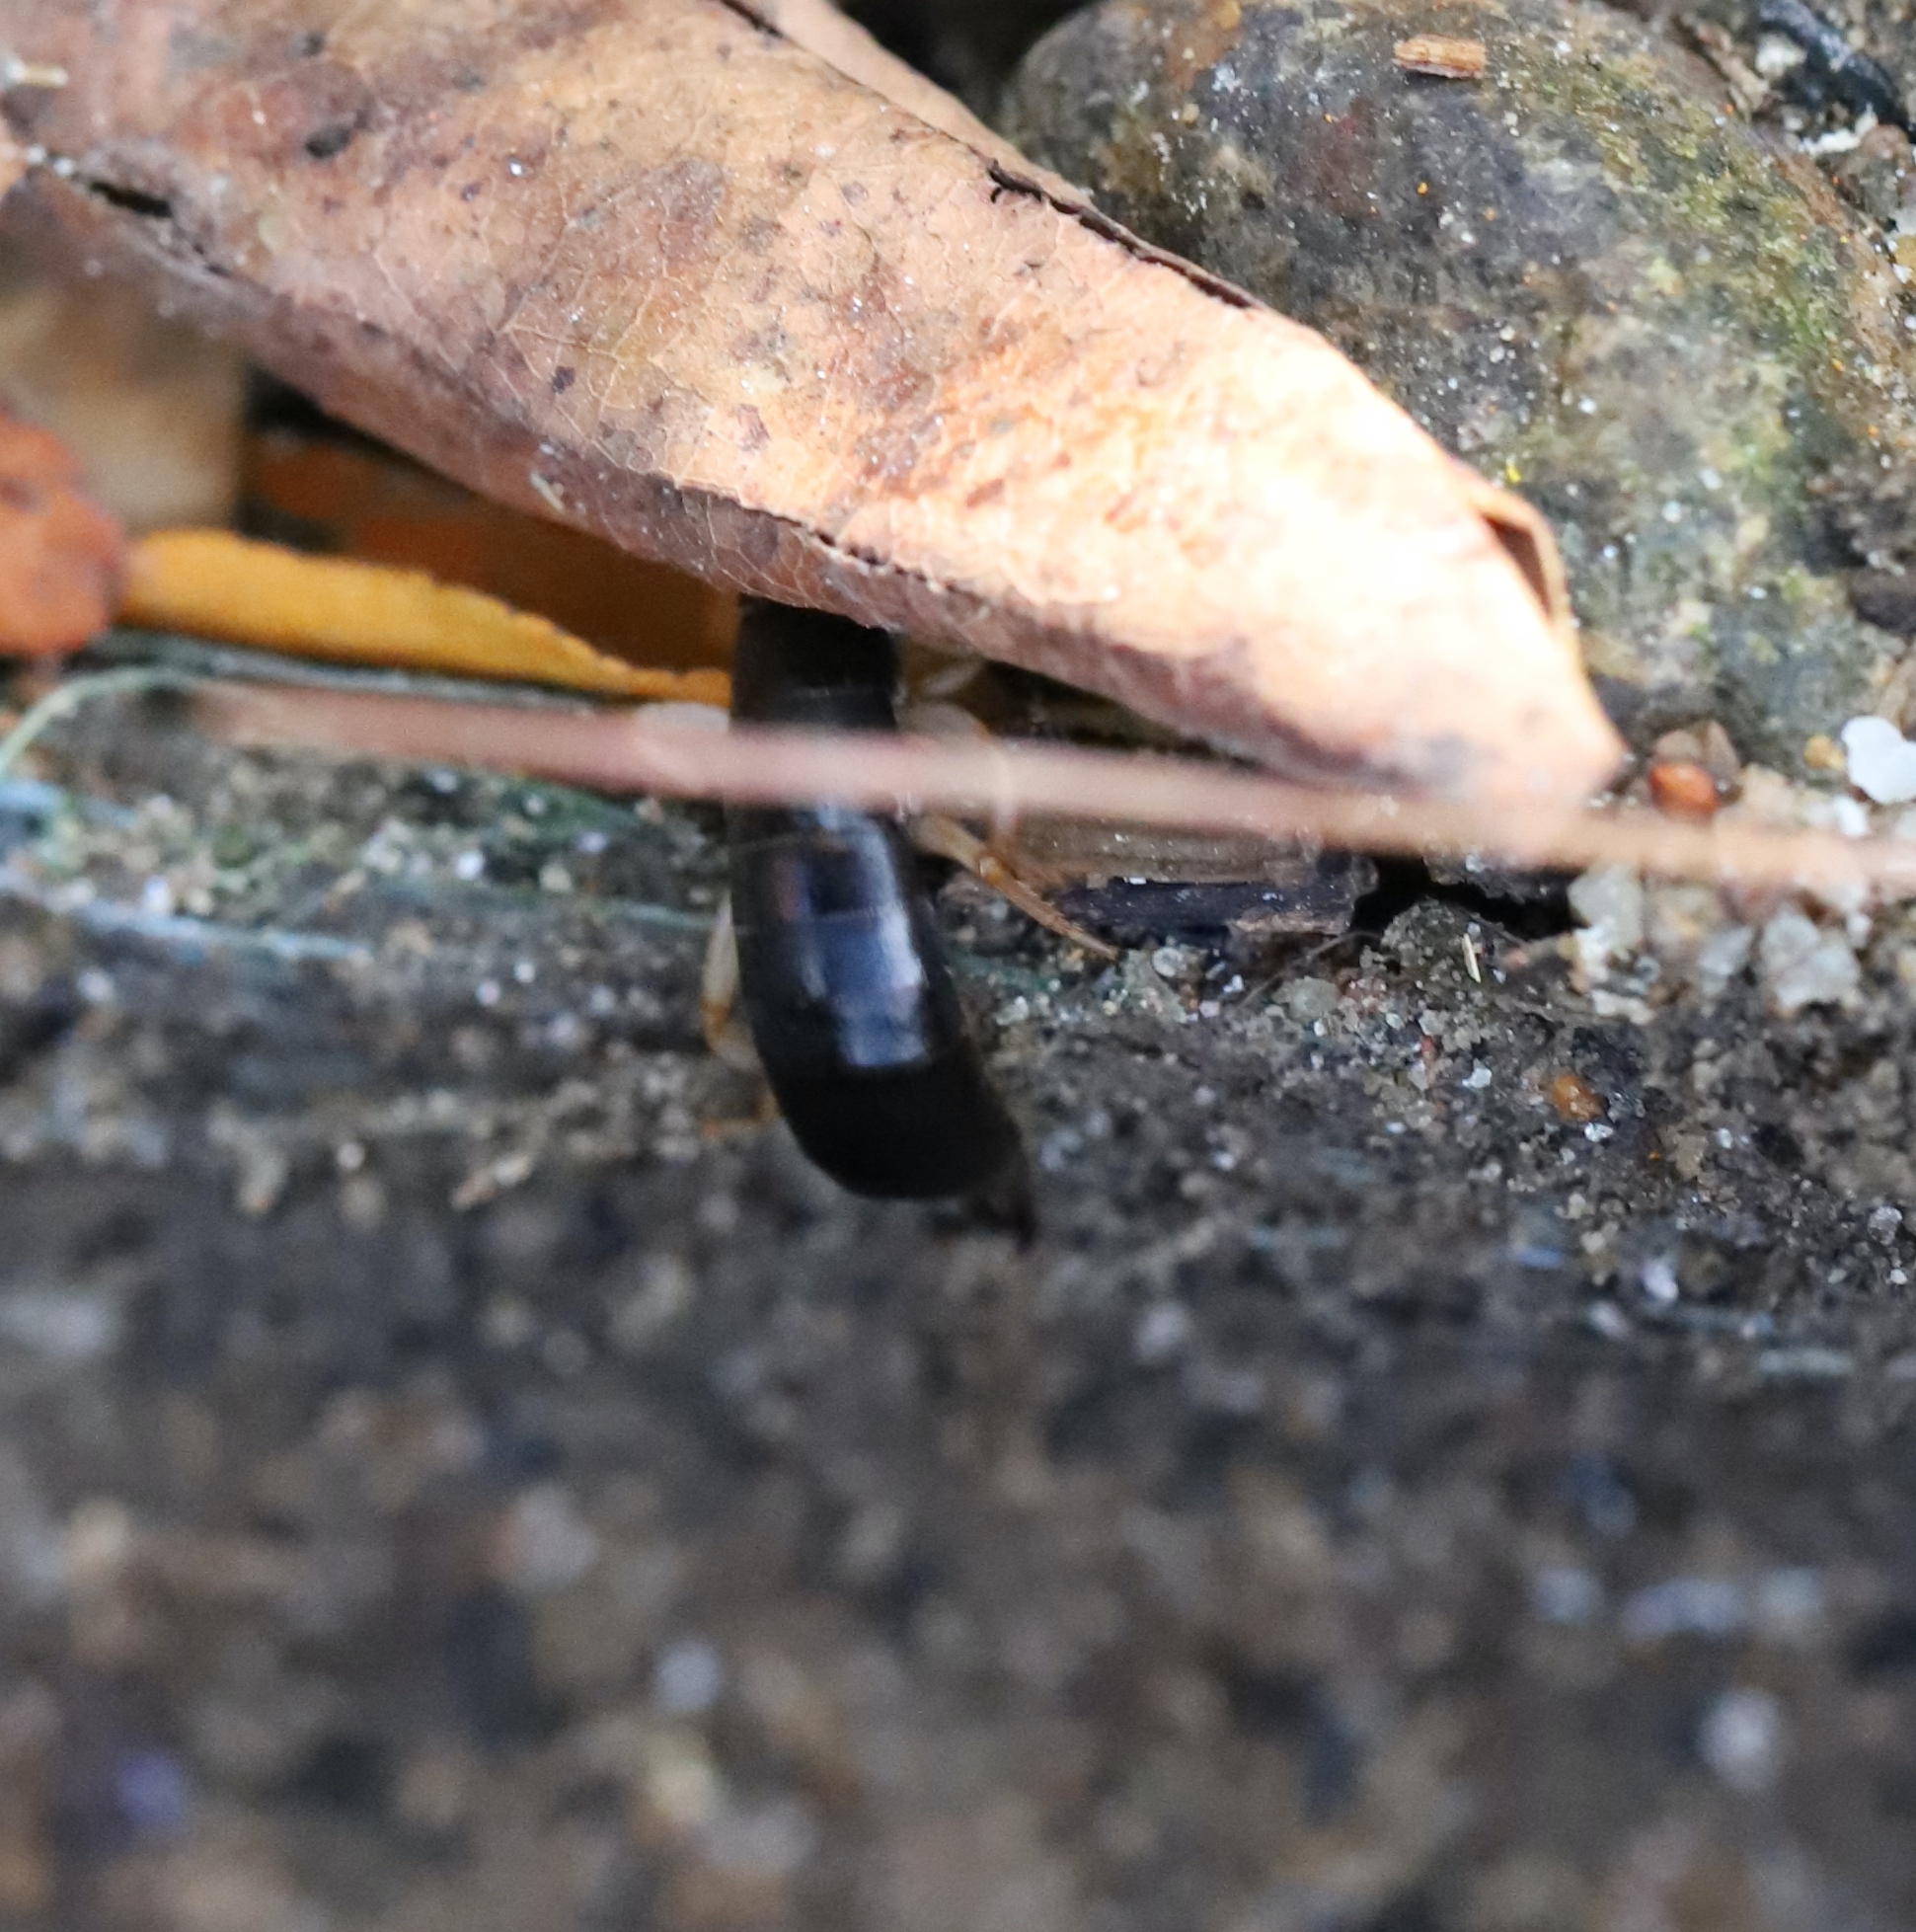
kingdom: Animalia
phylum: Arthropoda
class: Insecta
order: Dermaptera
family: Anisolabididae
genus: Anisolabis
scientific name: Anisolabis maritima
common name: Maritime earwig
